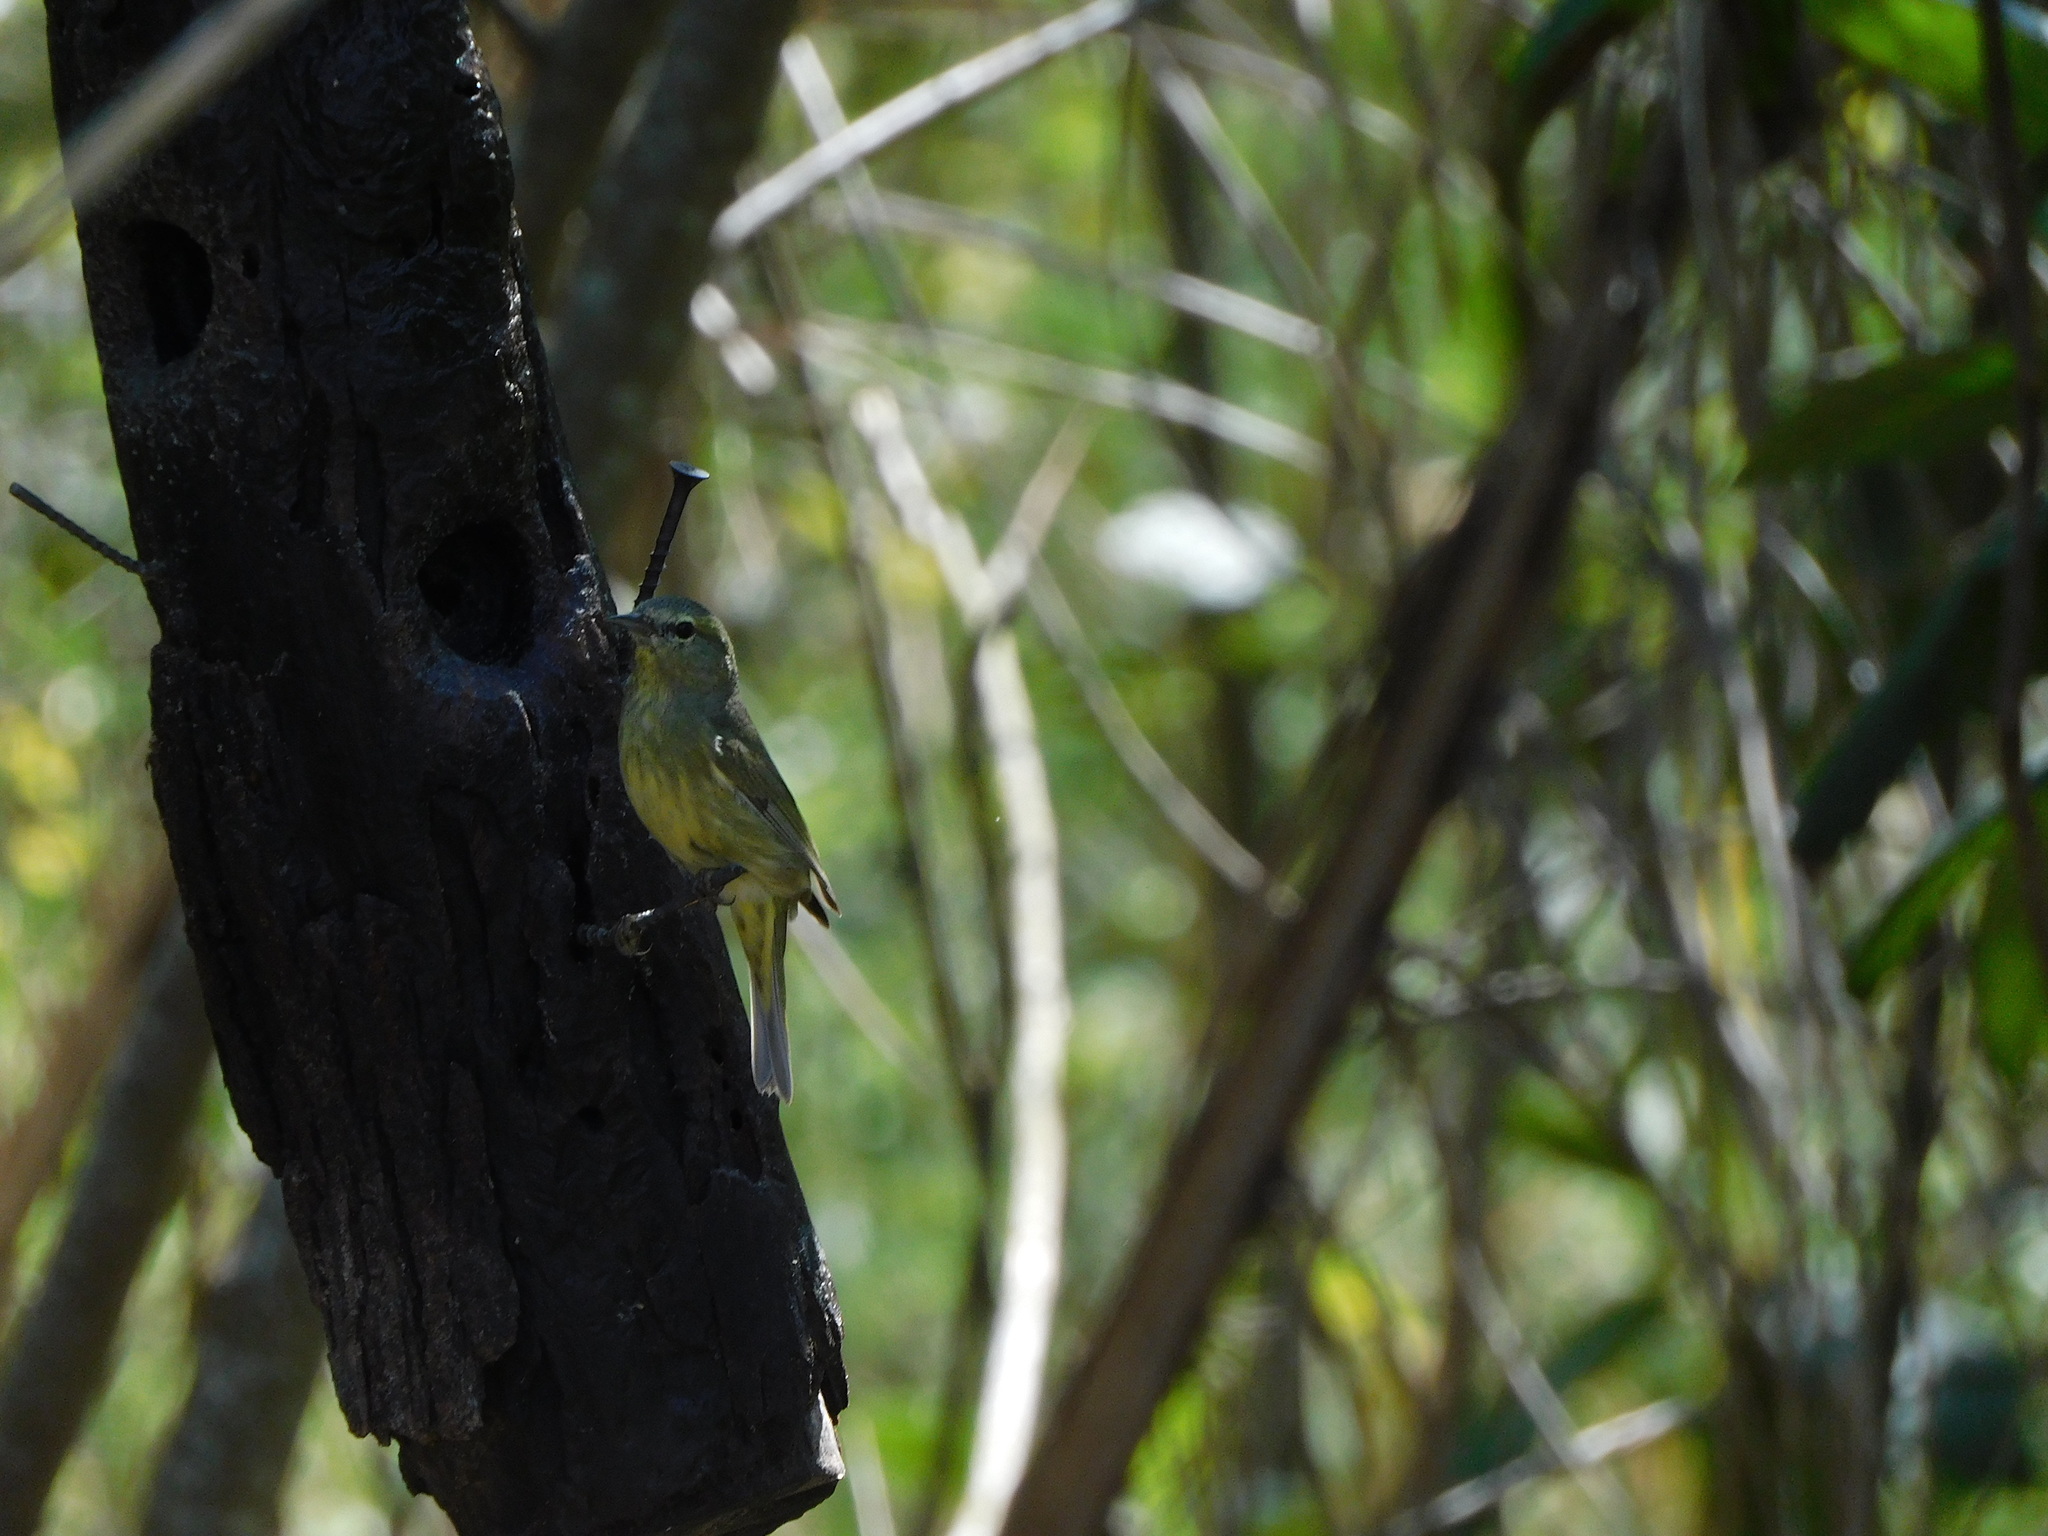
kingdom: Animalia
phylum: Chordata
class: Aves
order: Passeriformes
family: Parulidae
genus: Leiothlypis
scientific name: Leiothlypis celata
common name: Orange-crowned warbler
